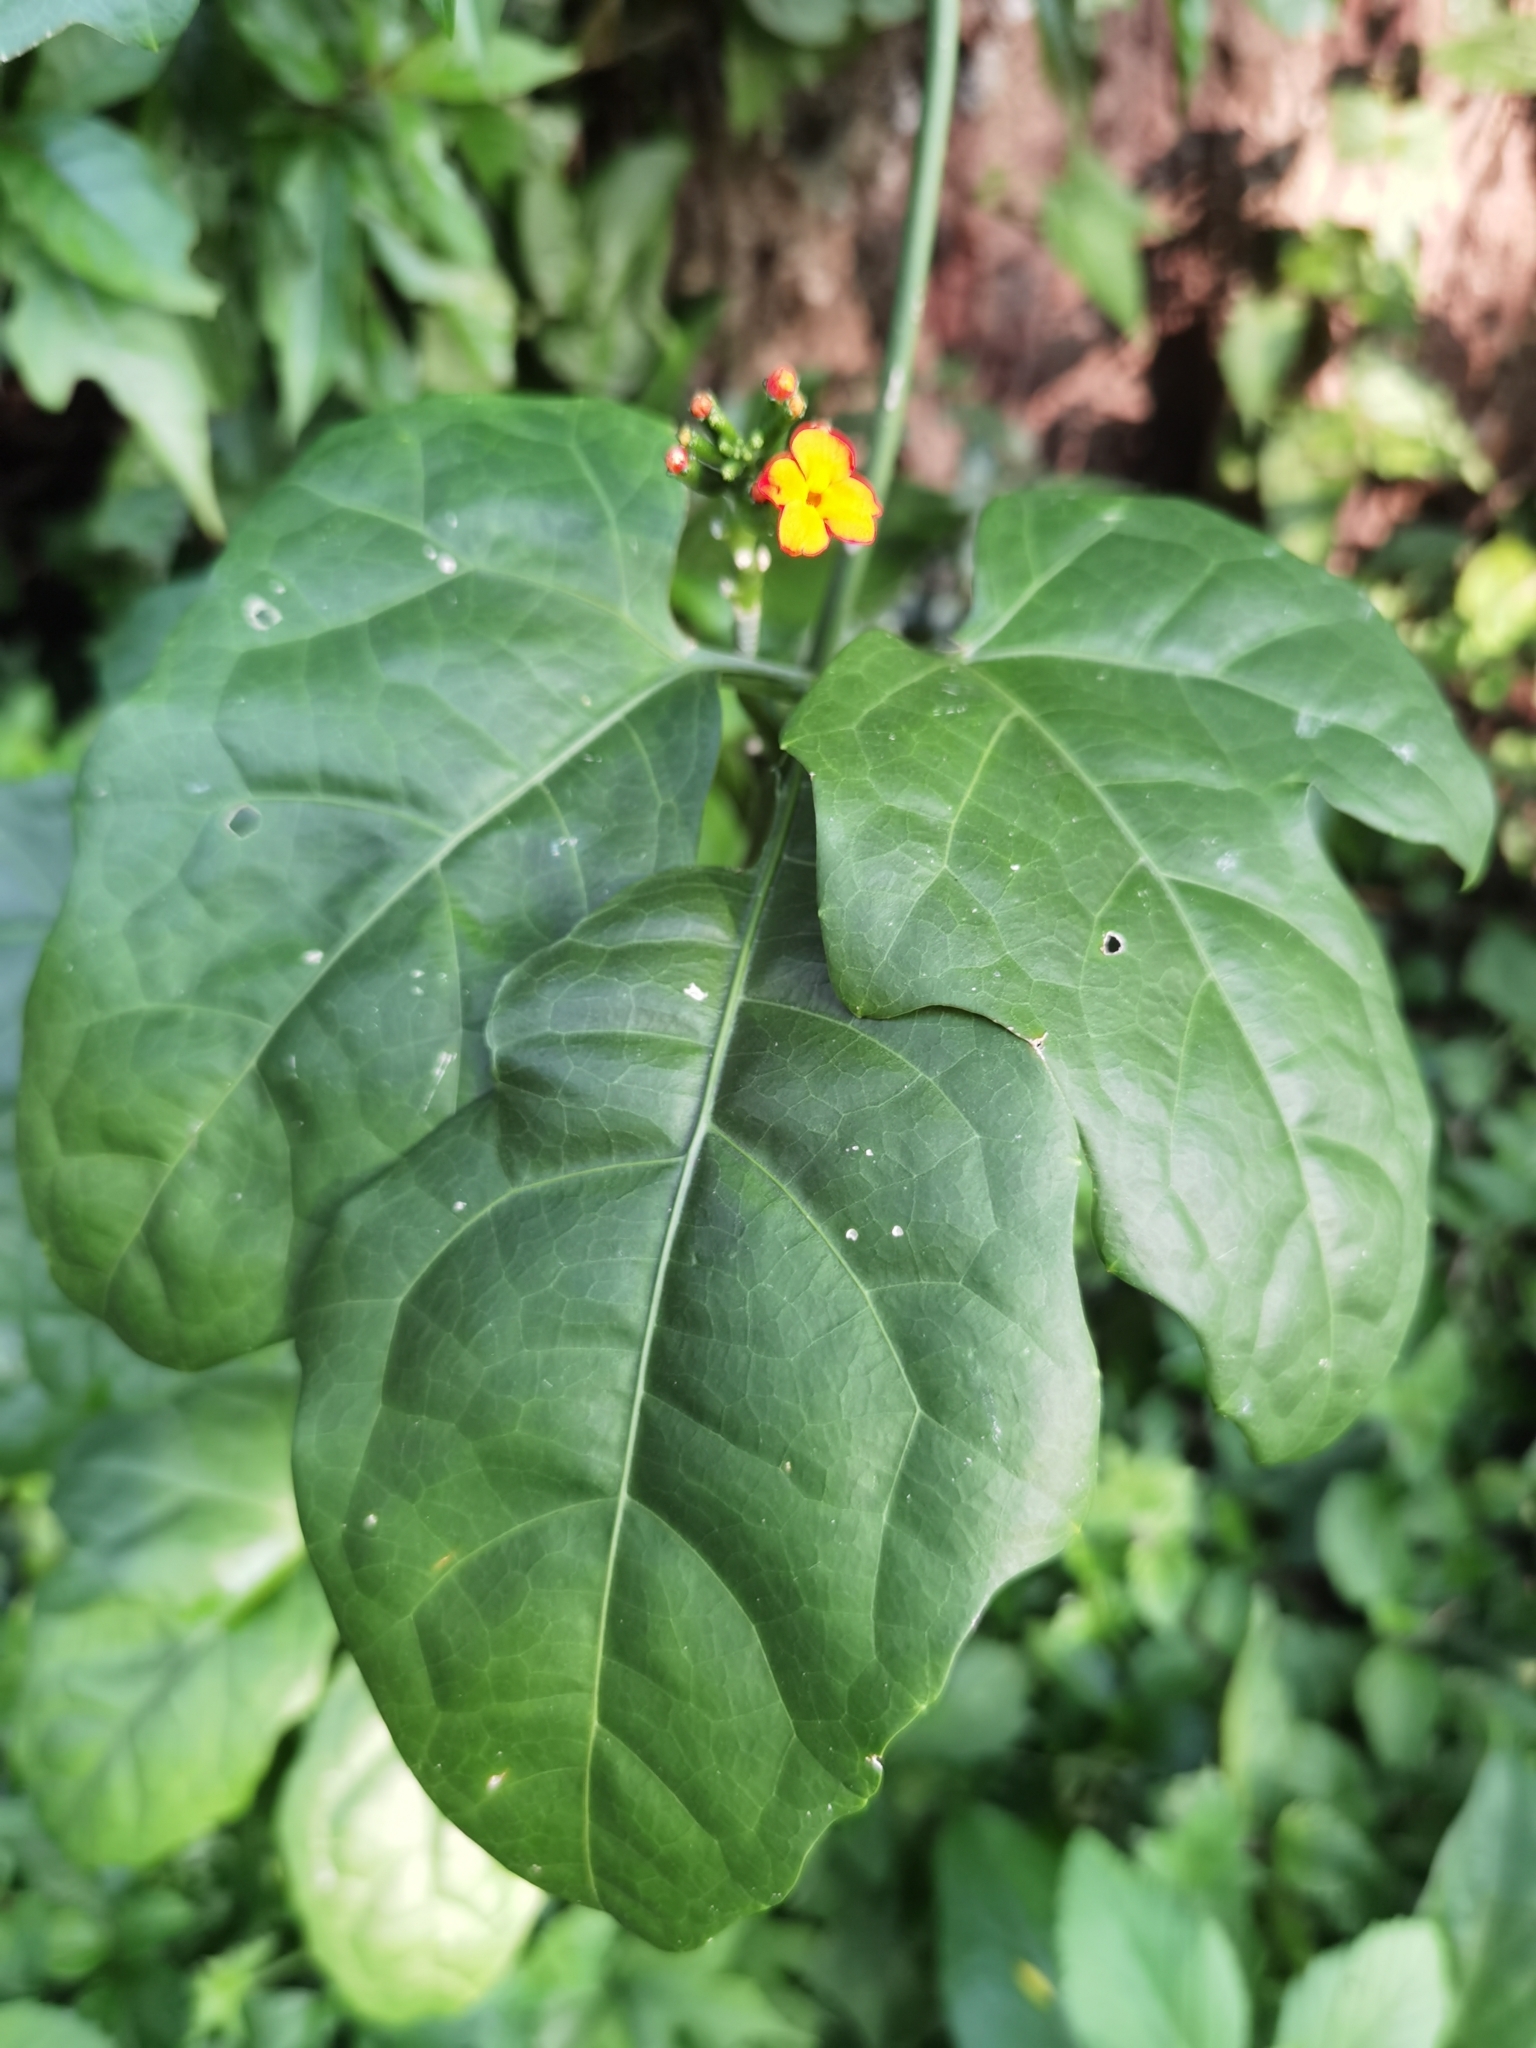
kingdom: Plantae
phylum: Tracheophyta
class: Magnoliopsida
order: Cucurbitales
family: Cucurbitaceae
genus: Psiguria
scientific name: Psiguria warscewiczii
